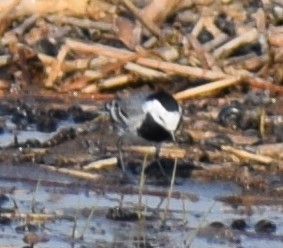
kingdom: Animalia
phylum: Chordata
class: Aves
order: Passeriformes
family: Motacillidae
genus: Motacilla
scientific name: Motacilla alba
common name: White wagtail
